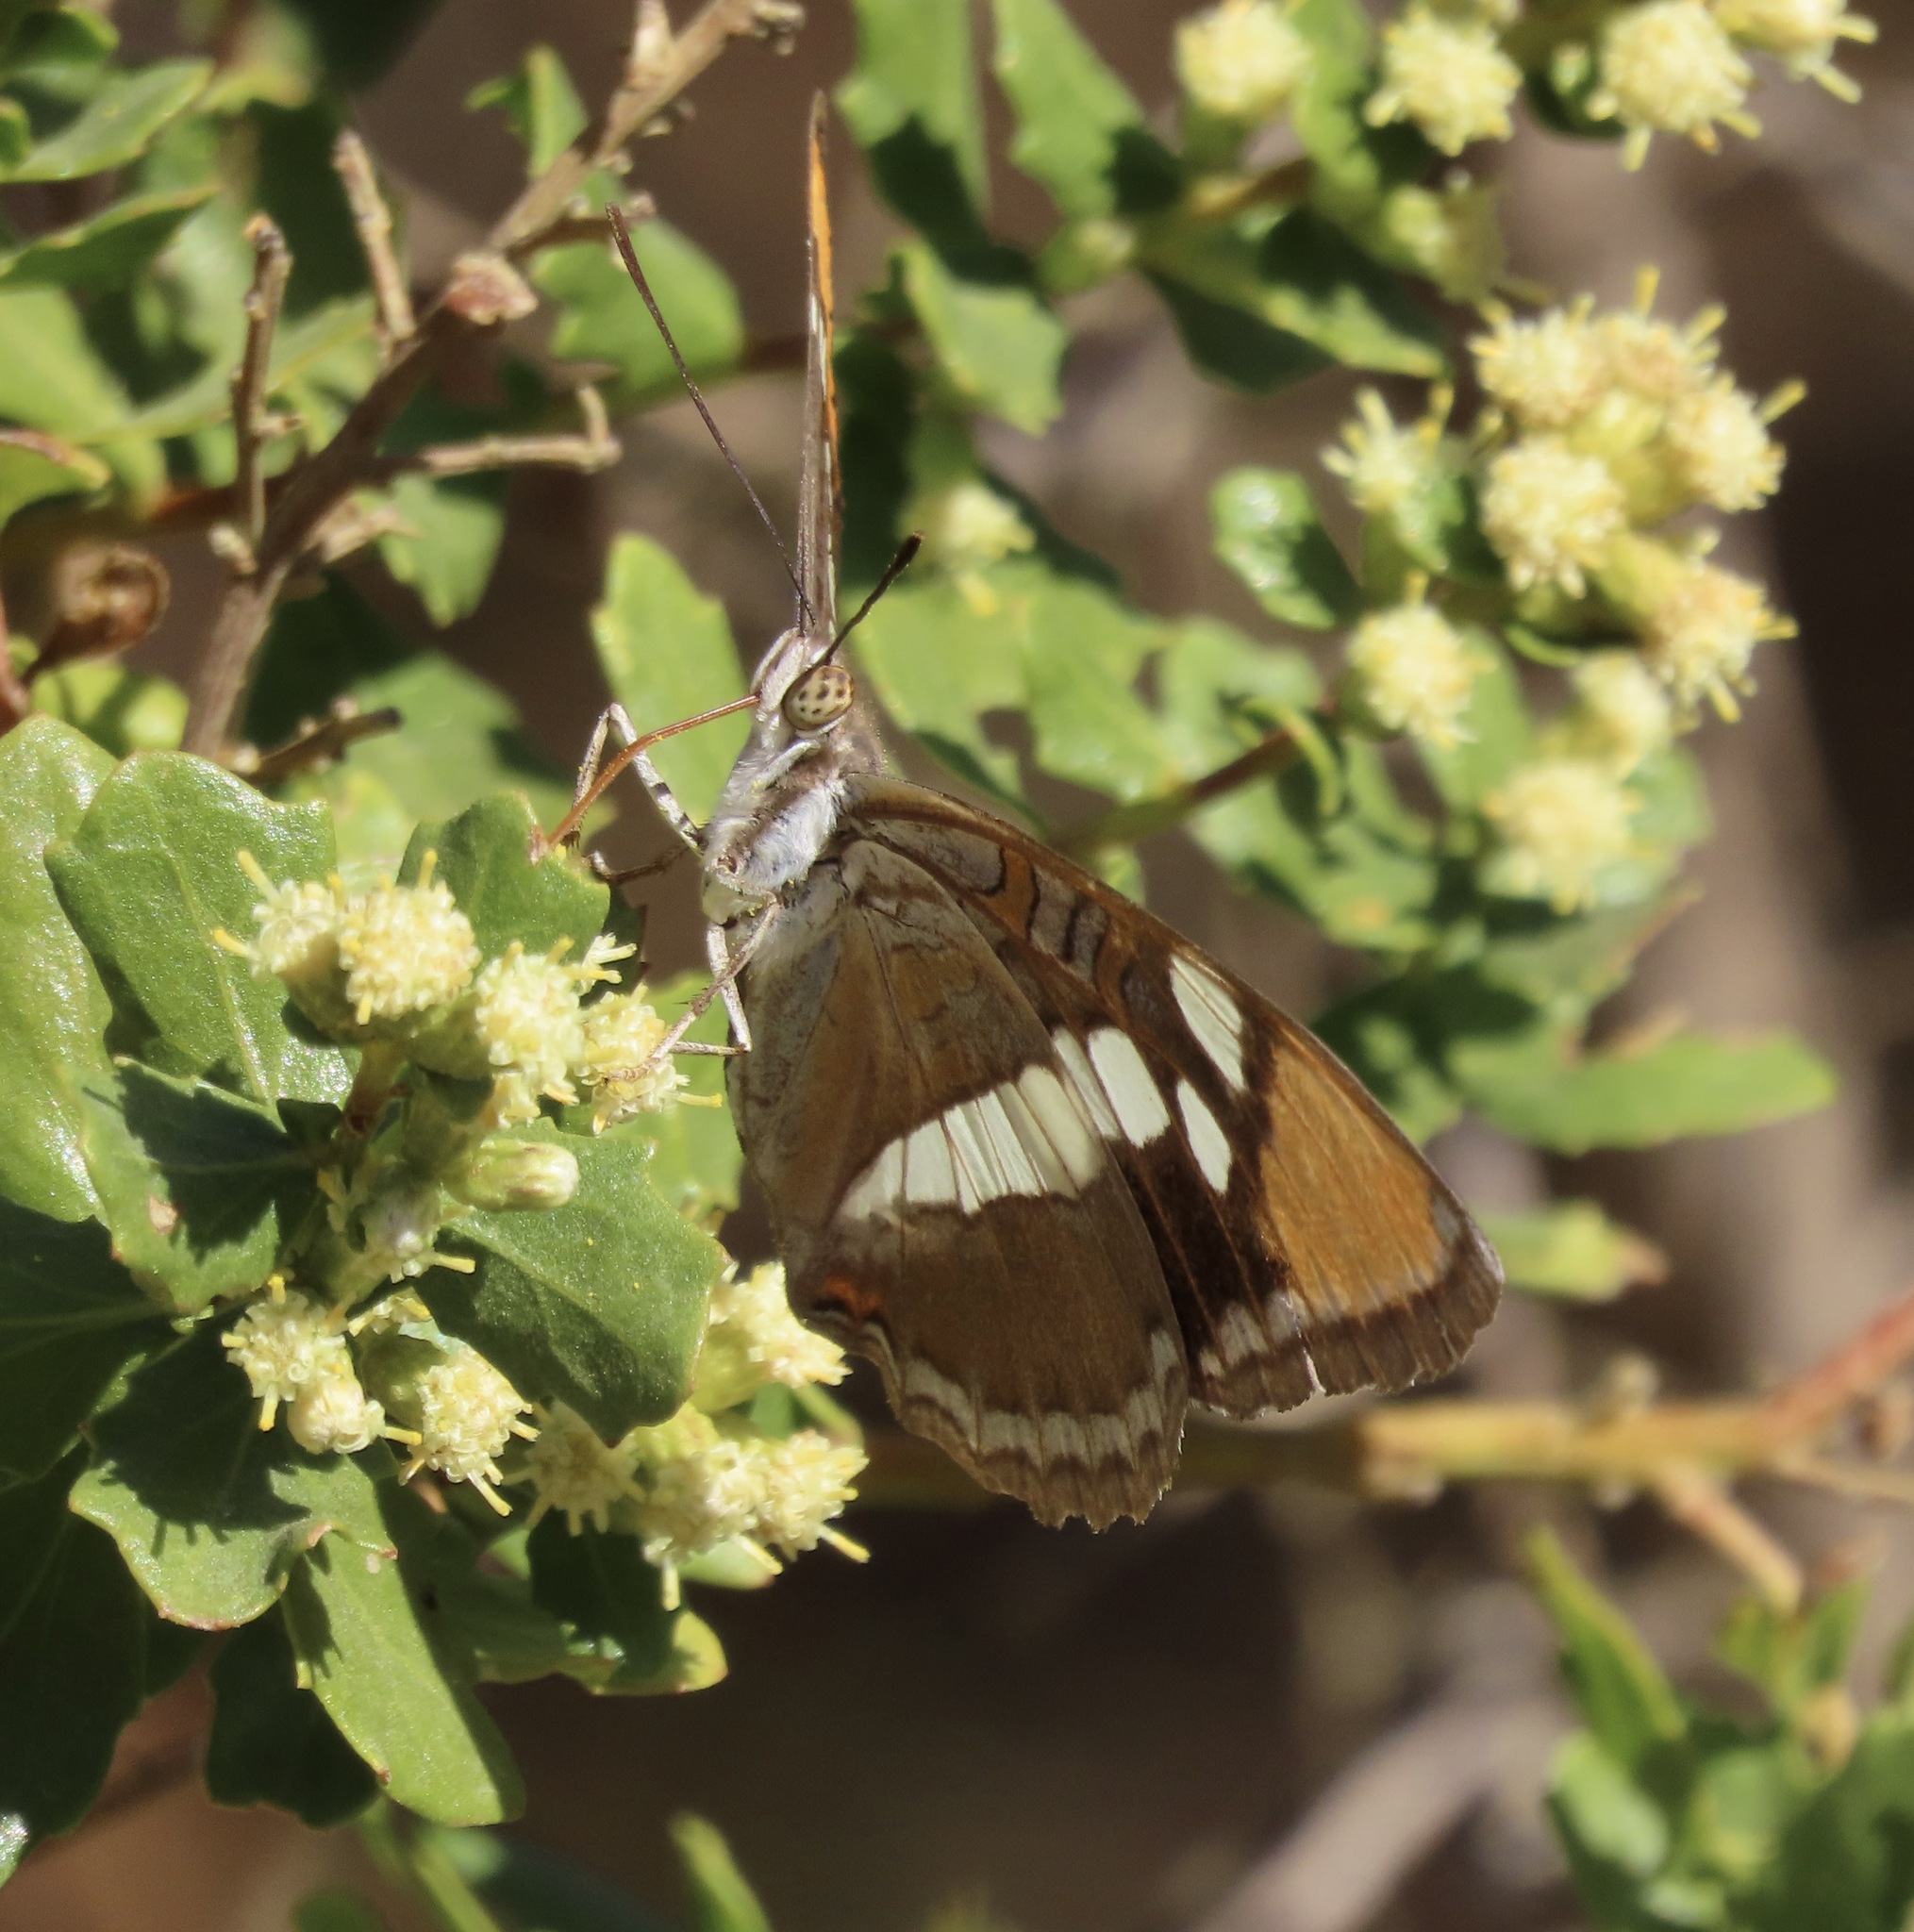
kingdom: Animalia
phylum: Arthropoda
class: Insecta
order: Lepidoptera
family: Nymphalidae
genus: Limenitis
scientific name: Limenitis bredowii
